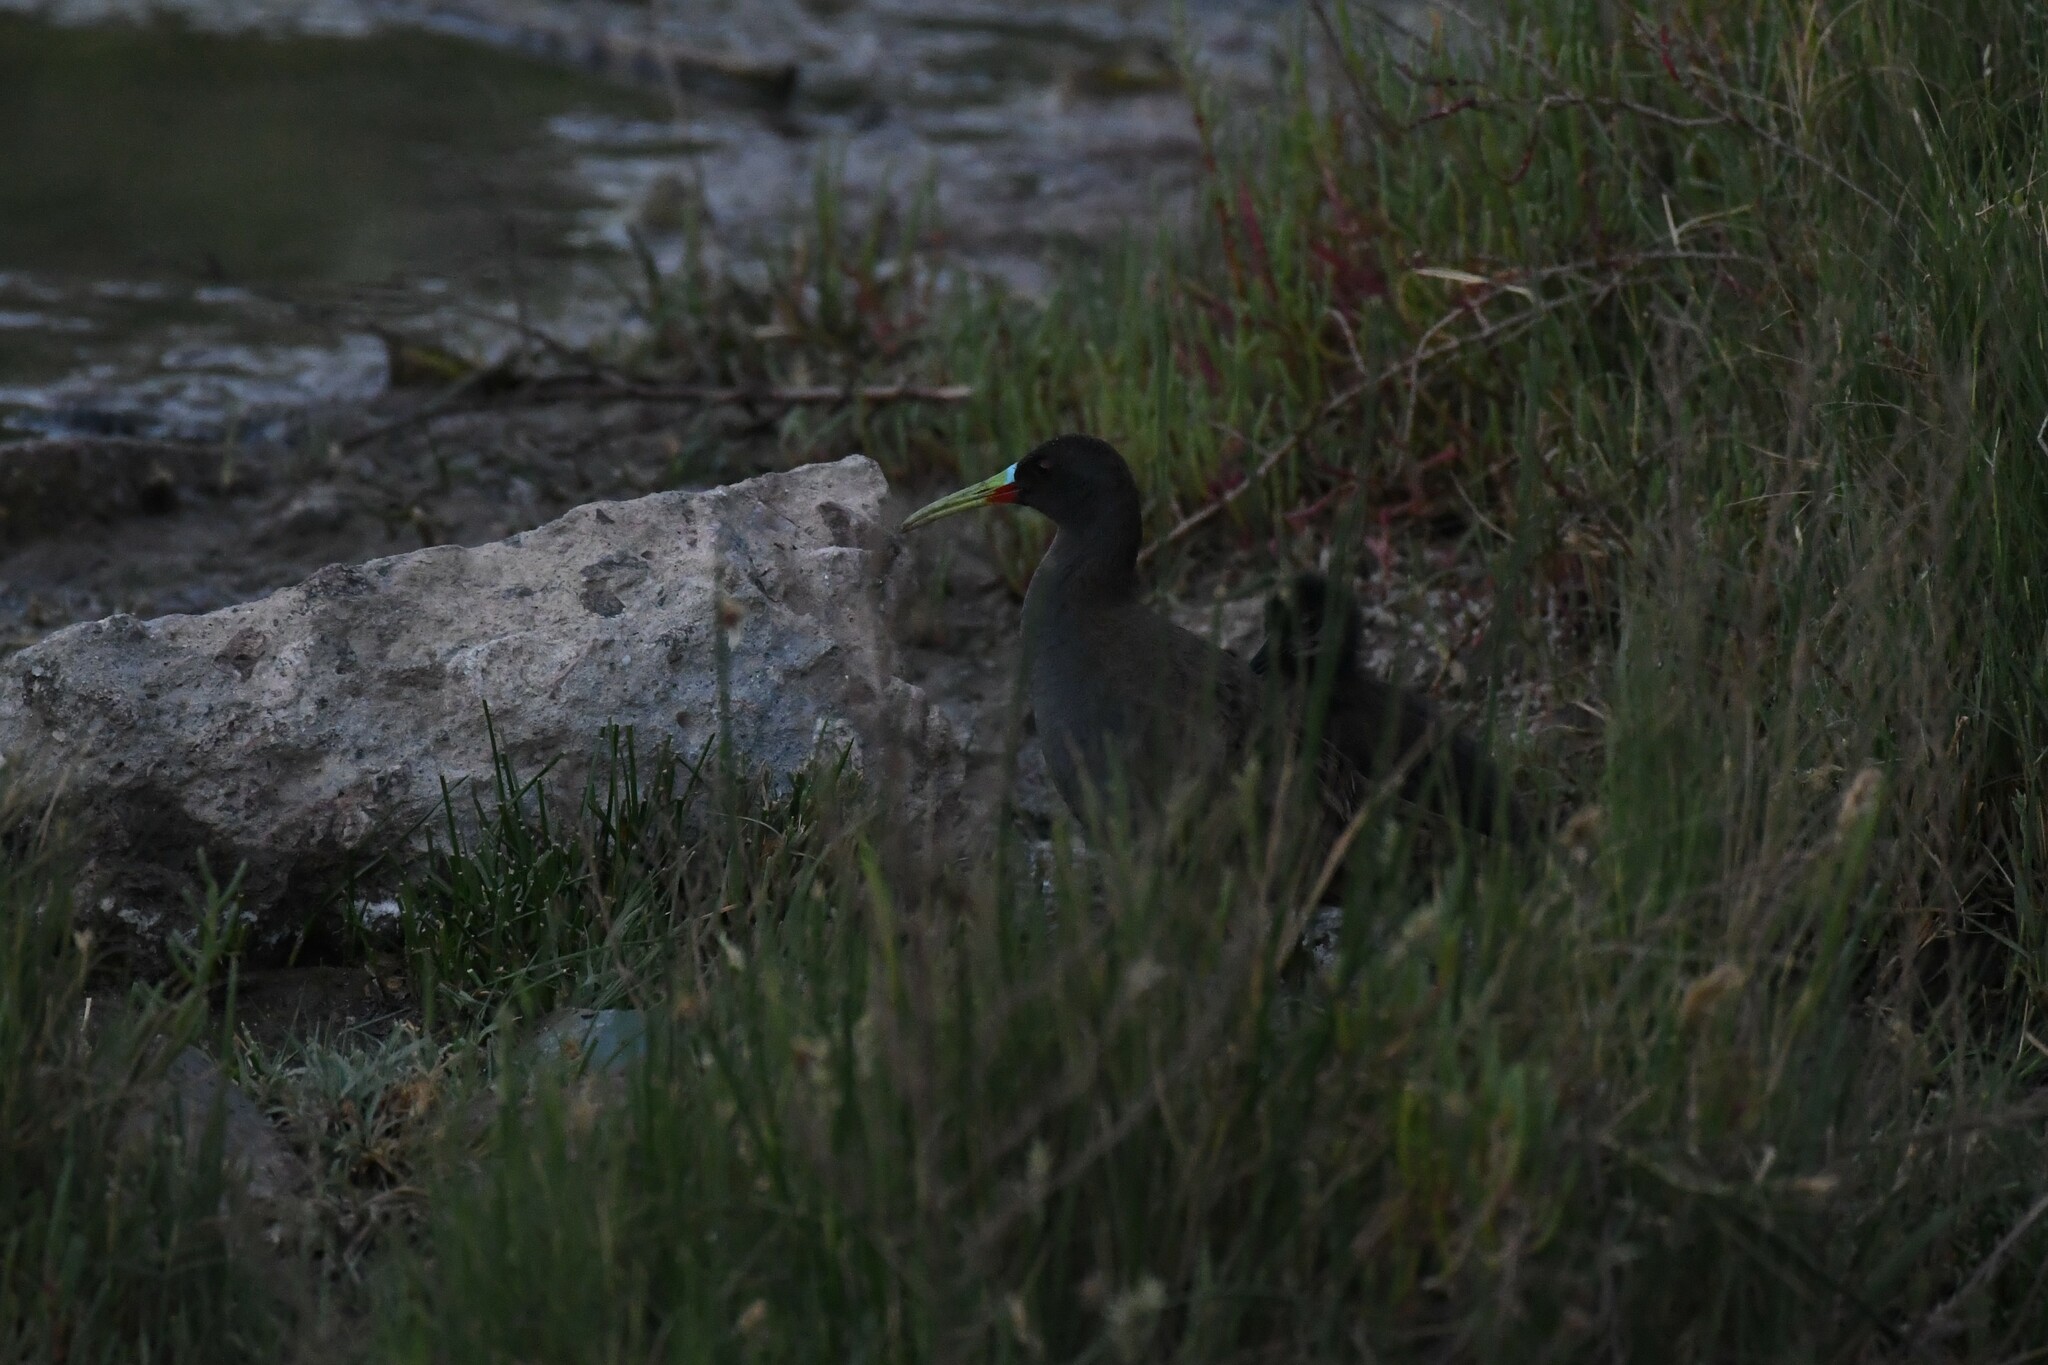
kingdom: Animalia
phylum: Chordata
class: Aves
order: Gruiformes
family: Rallidae
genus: Pardirallus
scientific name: Pardirallus sanguinolentus
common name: Plumbeous rail
